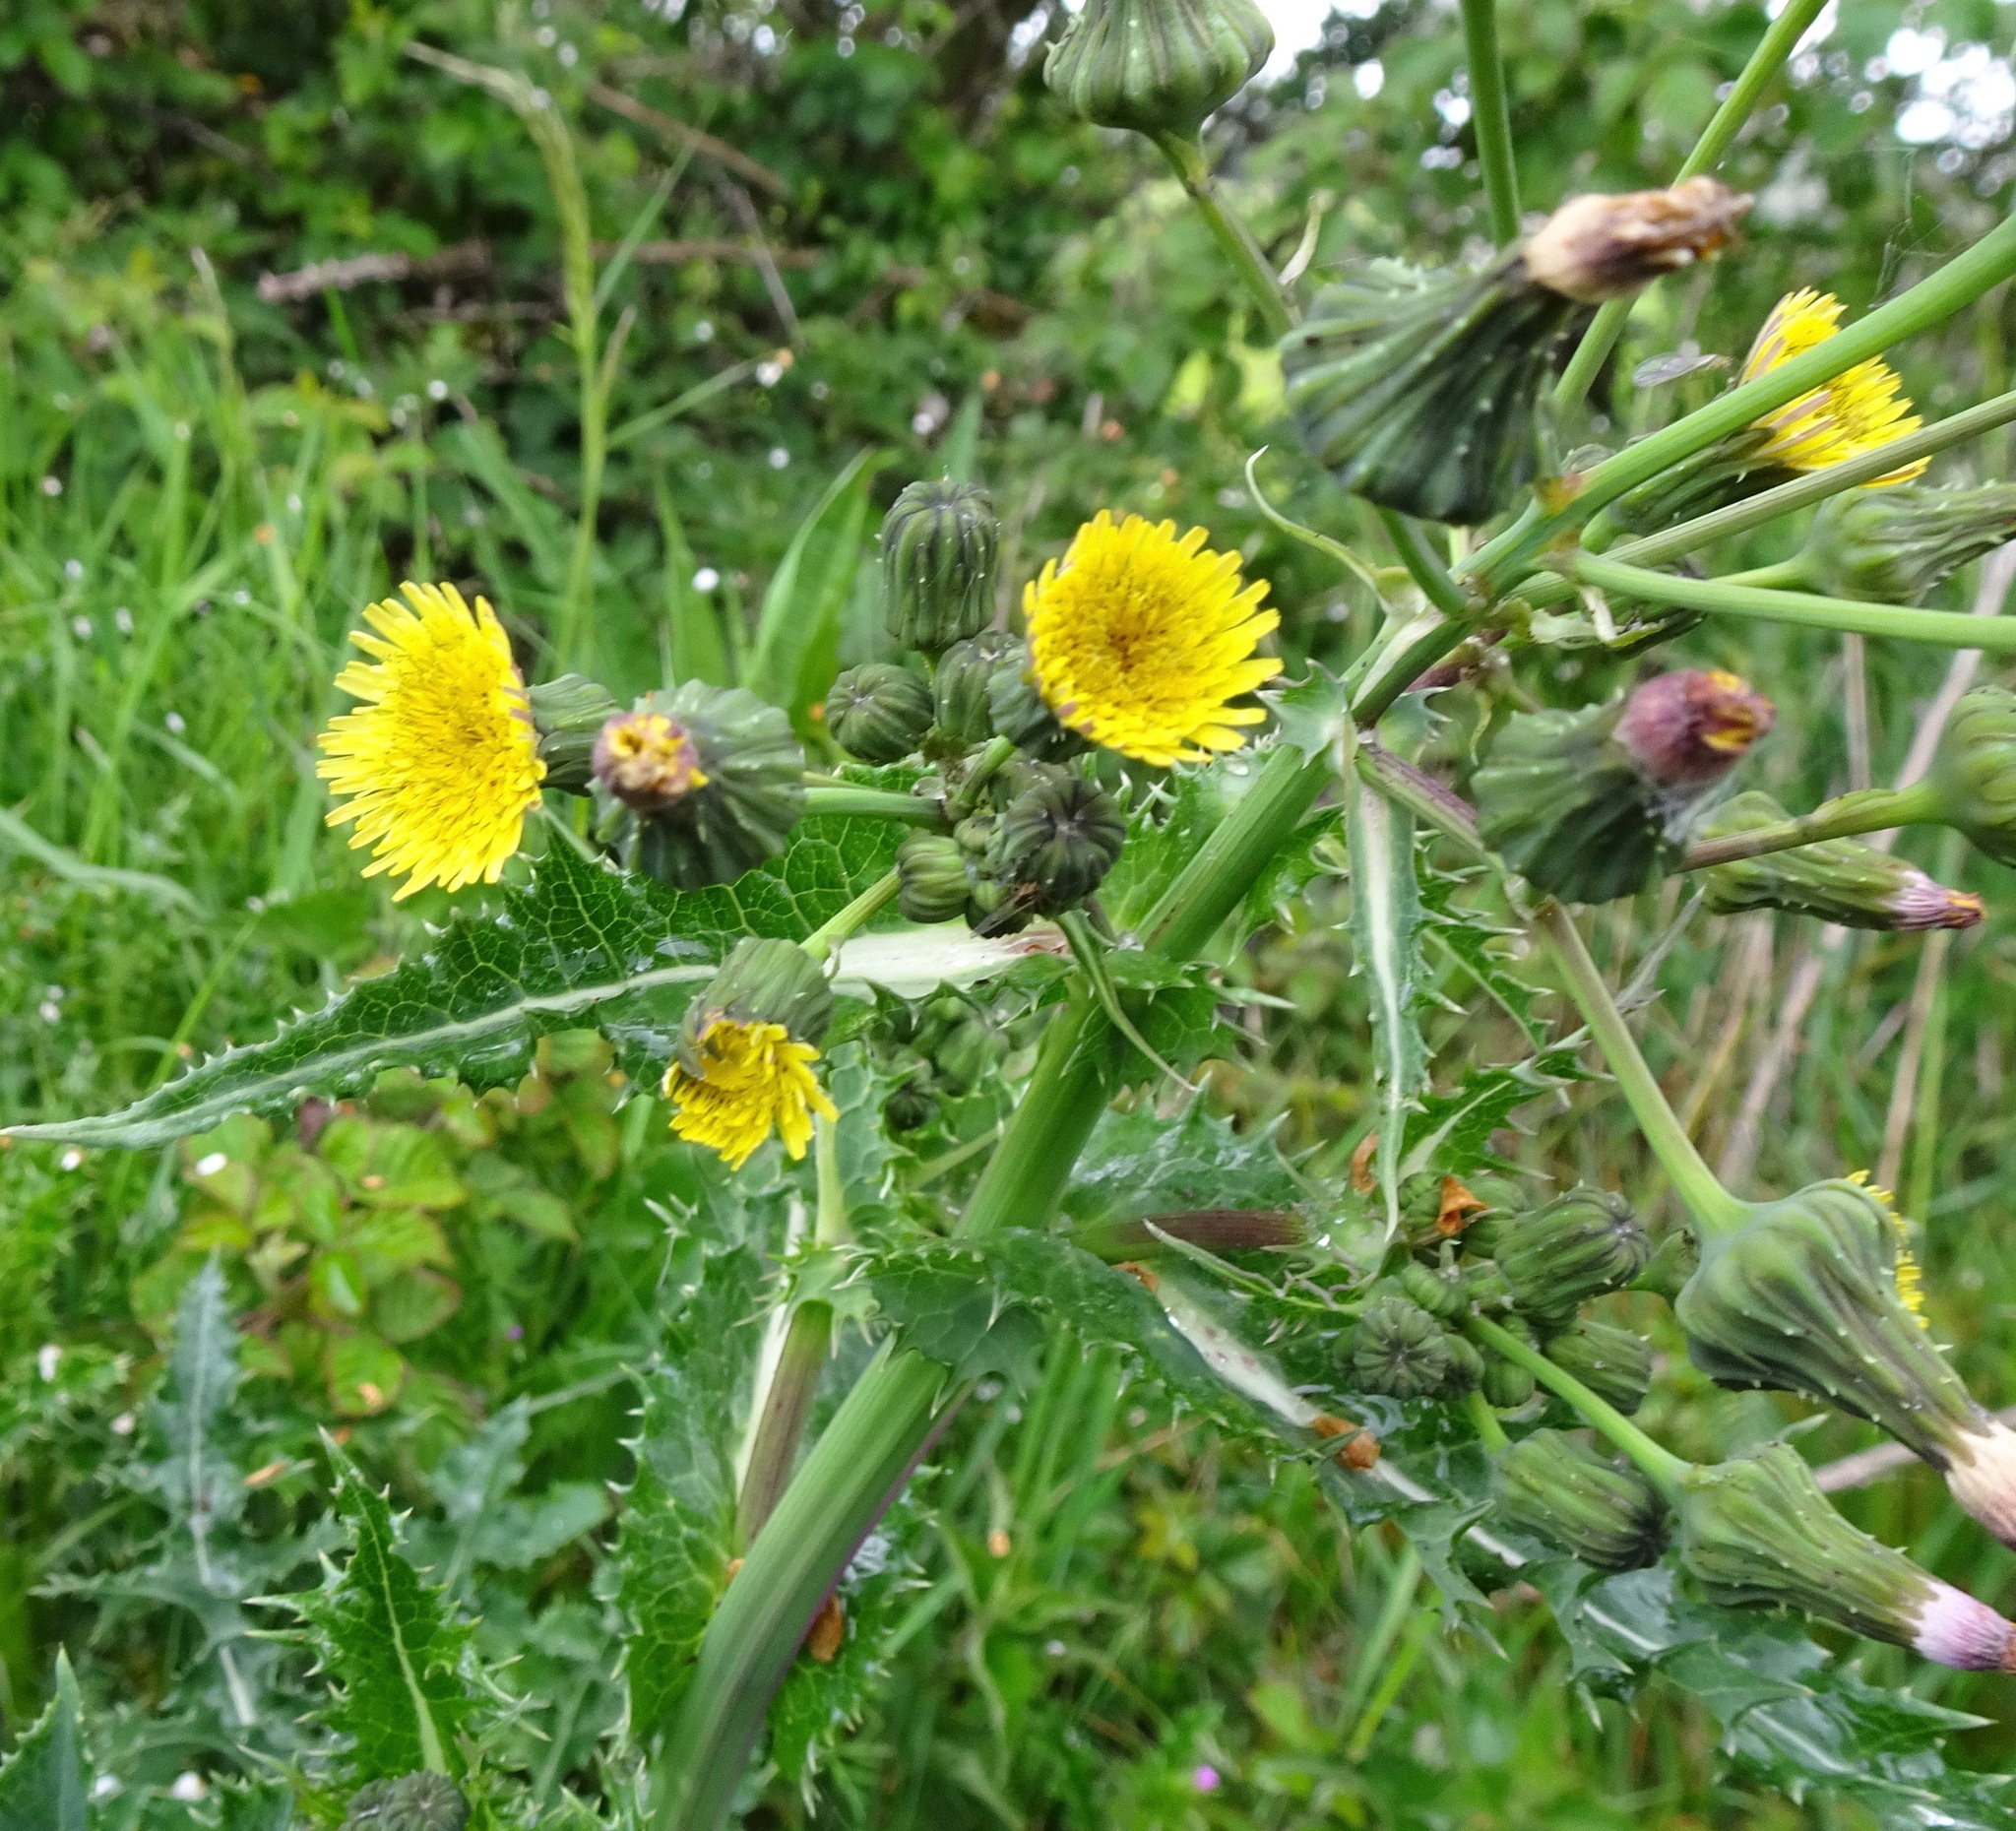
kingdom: Plantae
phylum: Tracheophyta
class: Magnoliopsida
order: Asterales
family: Asteraceae
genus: Sonchus
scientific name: Sonchus asper
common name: Prickly sow-thistle
